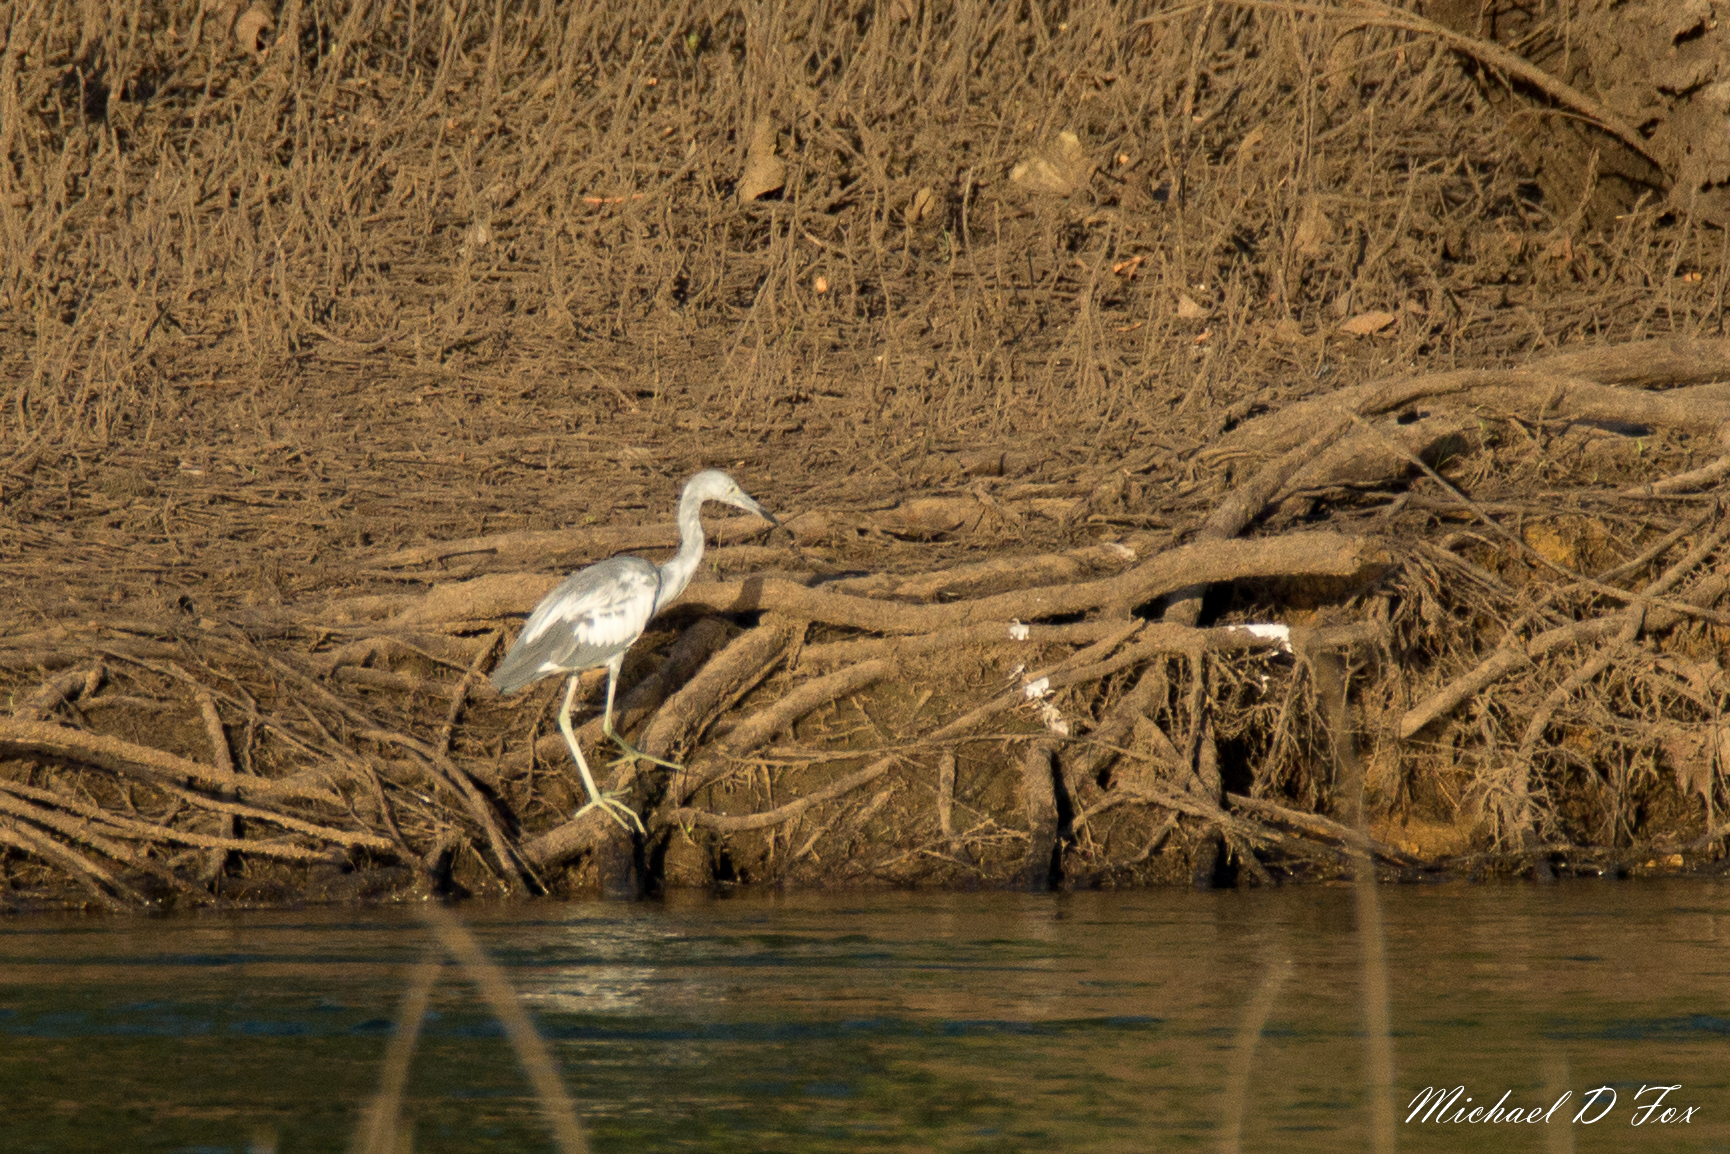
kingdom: Animalia
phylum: Chordata
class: Aves
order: Pelecaniformes
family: Ardeidae
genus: Egretta
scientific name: Egretta caerulea
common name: Little blue heron
